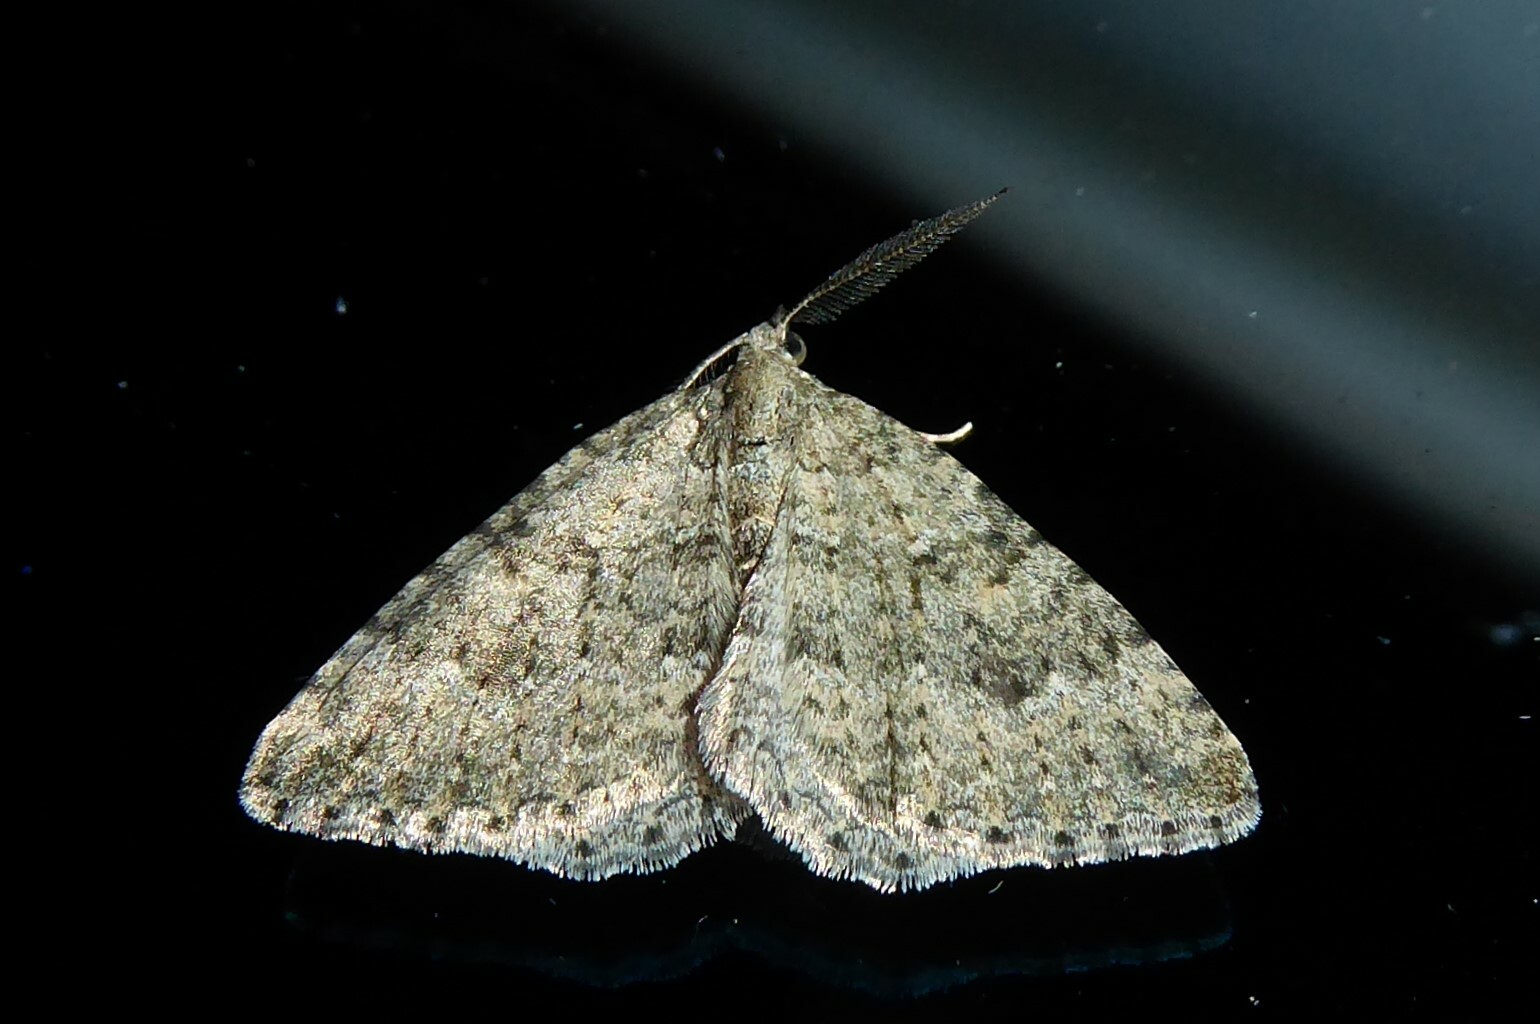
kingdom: Animalia
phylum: Arthropoda
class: Insecta
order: Lepidoptera
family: Geometridae
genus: Helastia
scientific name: Helastia corcularia
